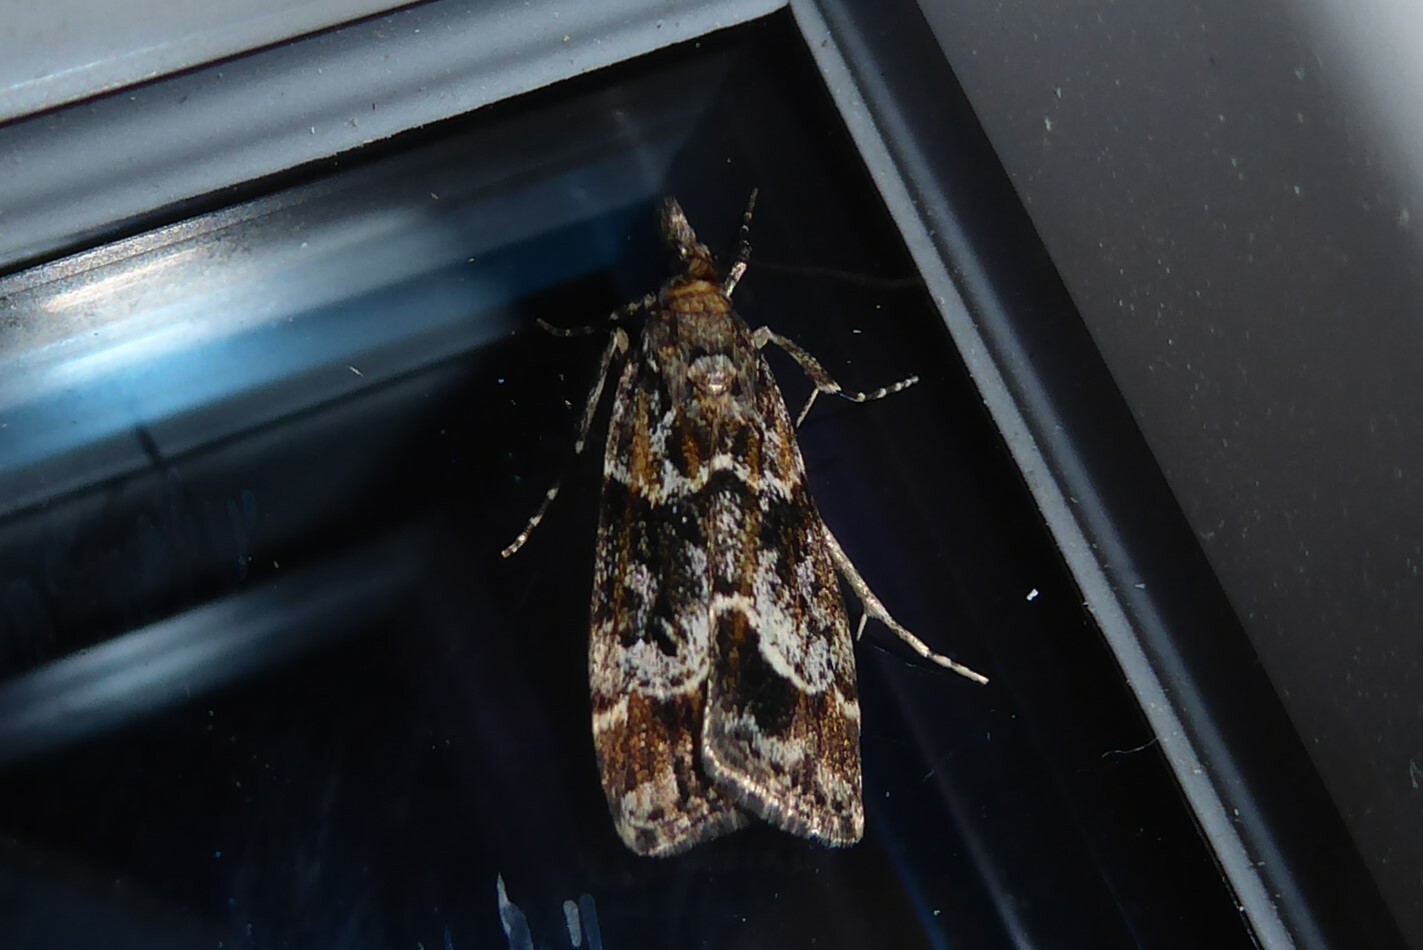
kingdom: Animalia
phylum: Arthropoda
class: Insecta
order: Lepidoptera
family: Crambidae
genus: Eudonia
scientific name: Eudonia legnota
